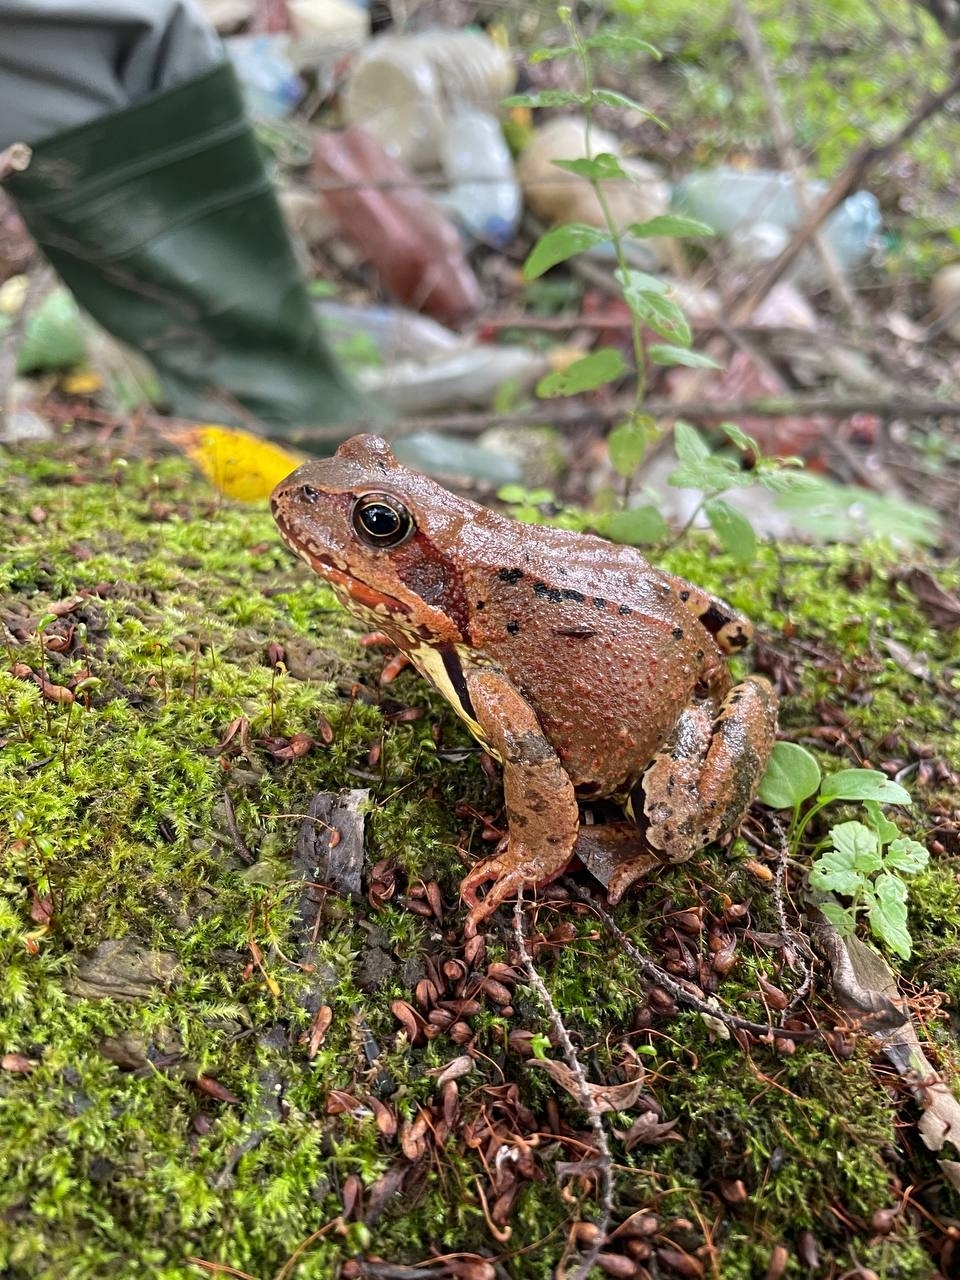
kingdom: Animalia
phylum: Chordata
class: Amphibia
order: Anura
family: Ranidae
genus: Rana
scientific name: Rana temporaria
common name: Common frog
